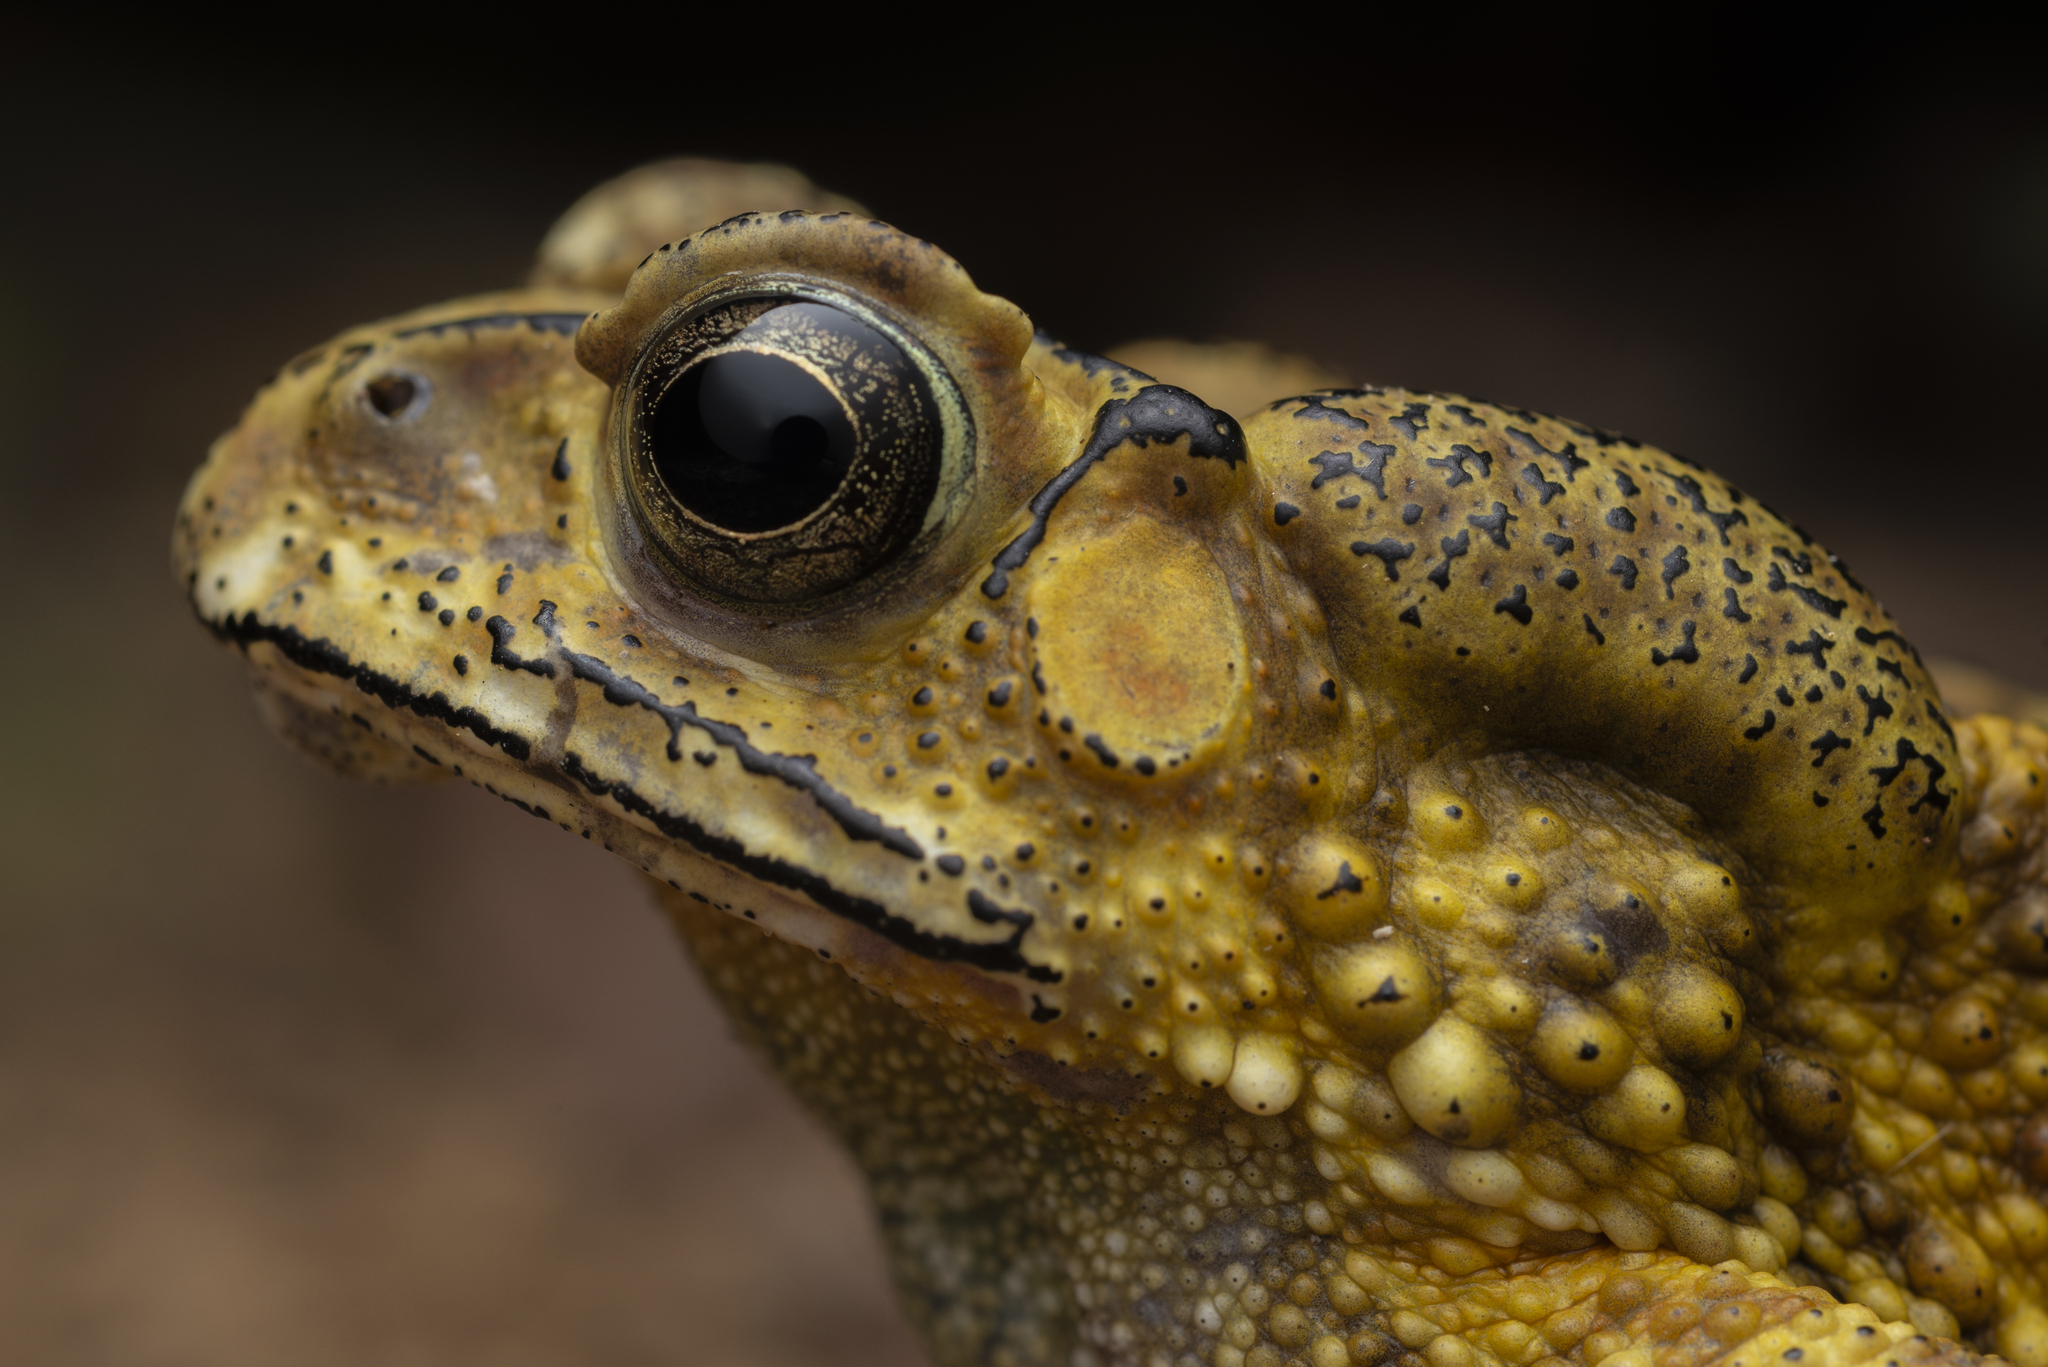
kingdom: Animalia
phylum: Chordata
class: Amphibia
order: Anura
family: Bufonidae
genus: Duttaphrynus
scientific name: Duttaphrynus melanostictus
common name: Common sunda toad
